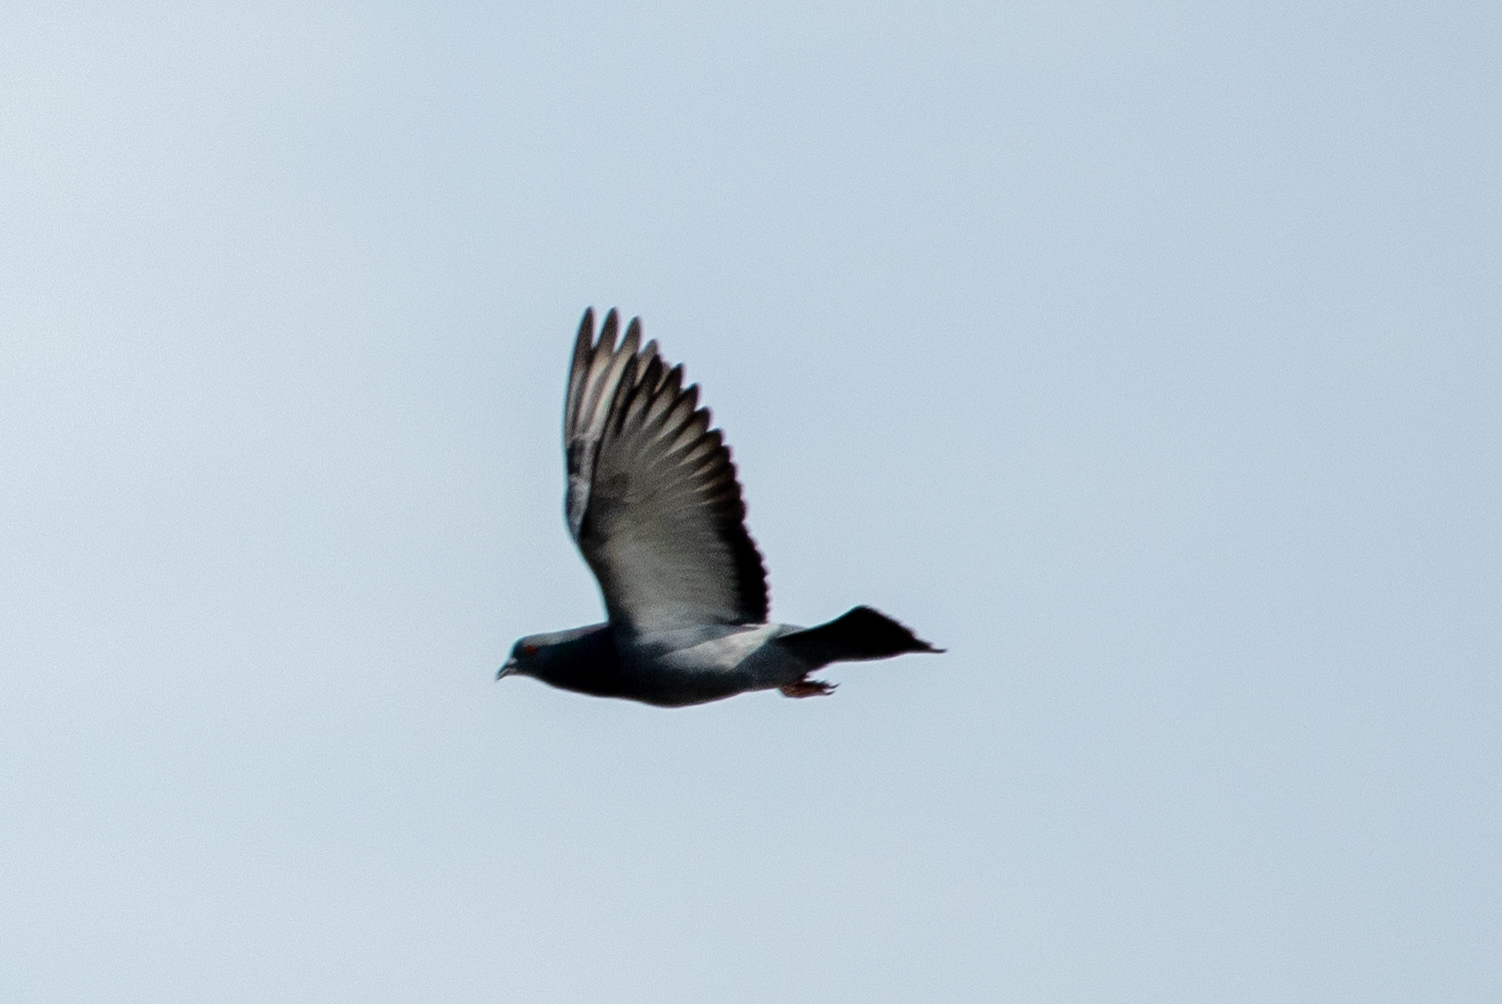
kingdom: Animalia
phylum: Chordata
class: Aves
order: Columbiformes
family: Columbidae
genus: Columba
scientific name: Columba livia
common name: Rock pigeon
